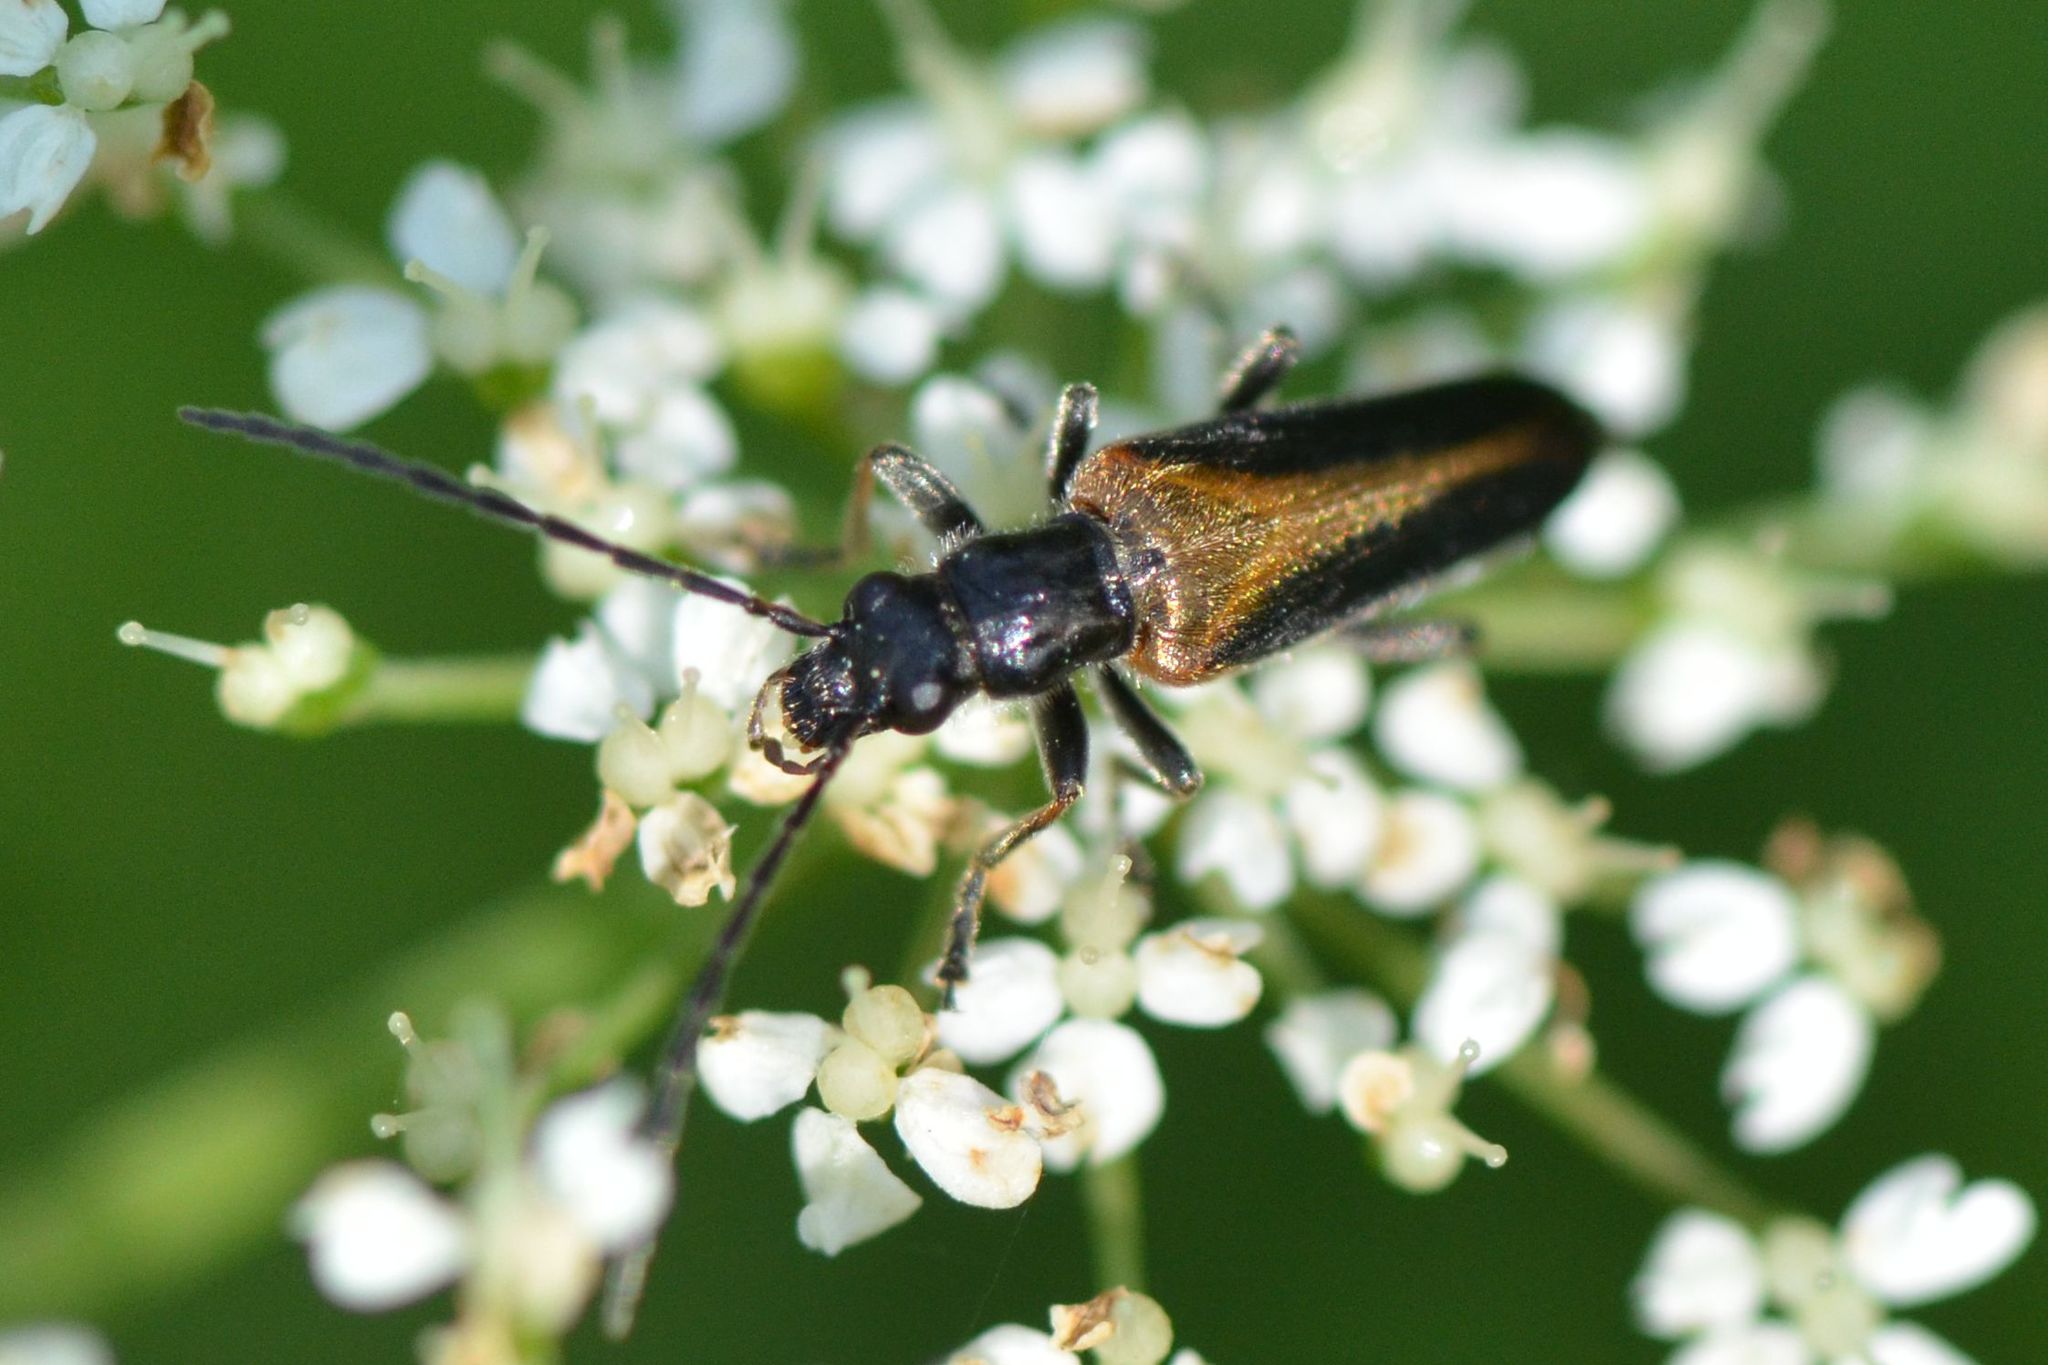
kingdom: Animalia
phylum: Arthropoda
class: Insecta
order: Coleoptera
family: Oedemeridae
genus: Anogcodes
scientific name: Anogcodes rufiventris
